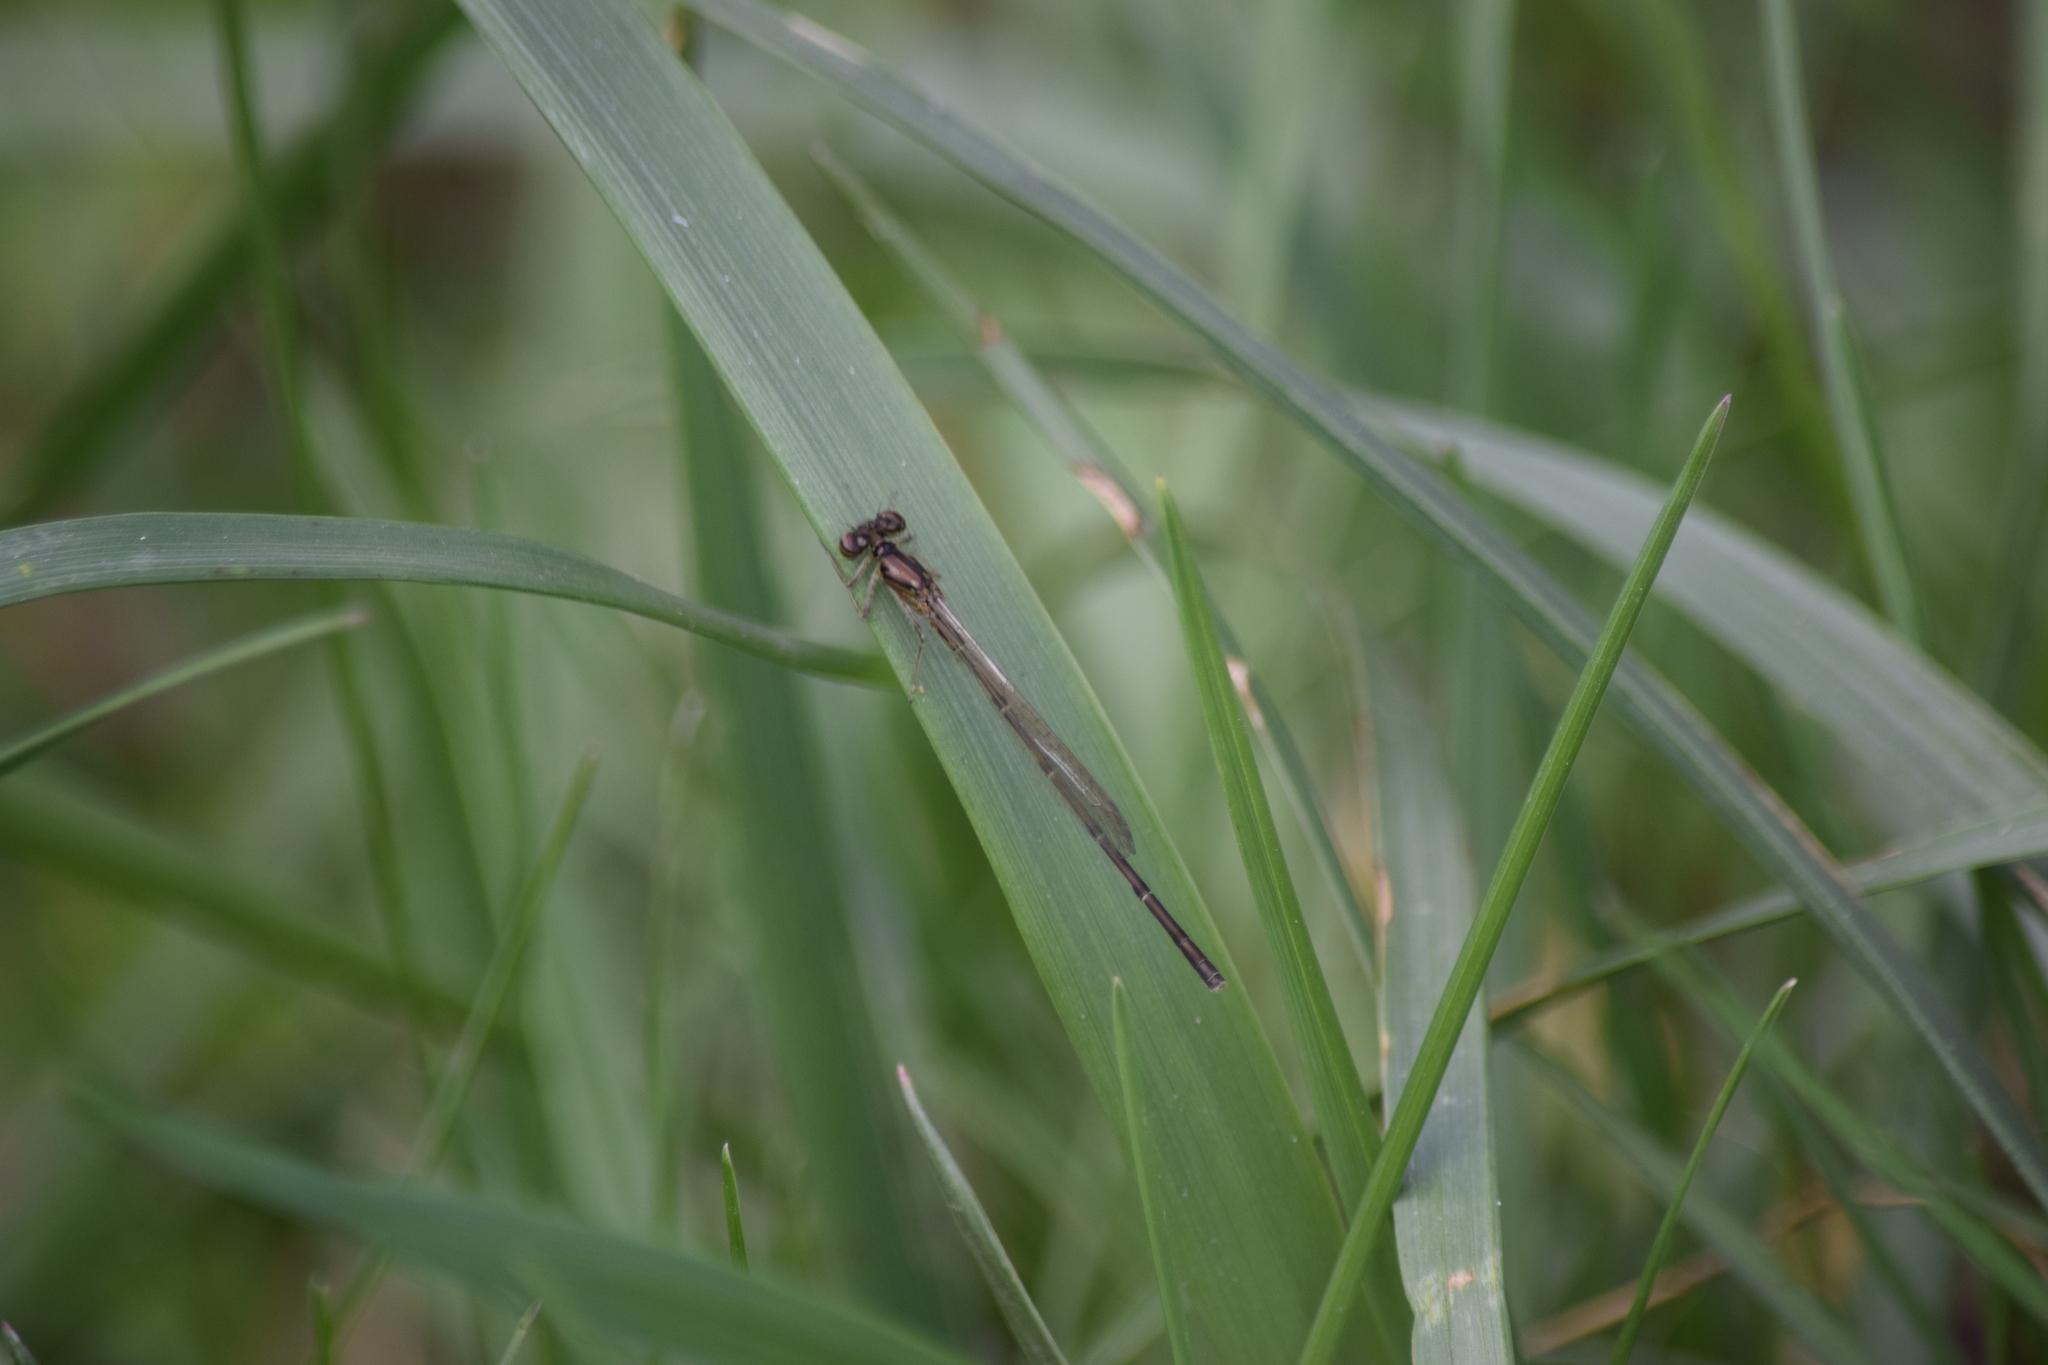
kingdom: Animalia
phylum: Arthropoda
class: Insecta
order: Odonata
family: Coenagrionidae
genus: Ischnura
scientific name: Ischnura posita
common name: Fragile forktail
